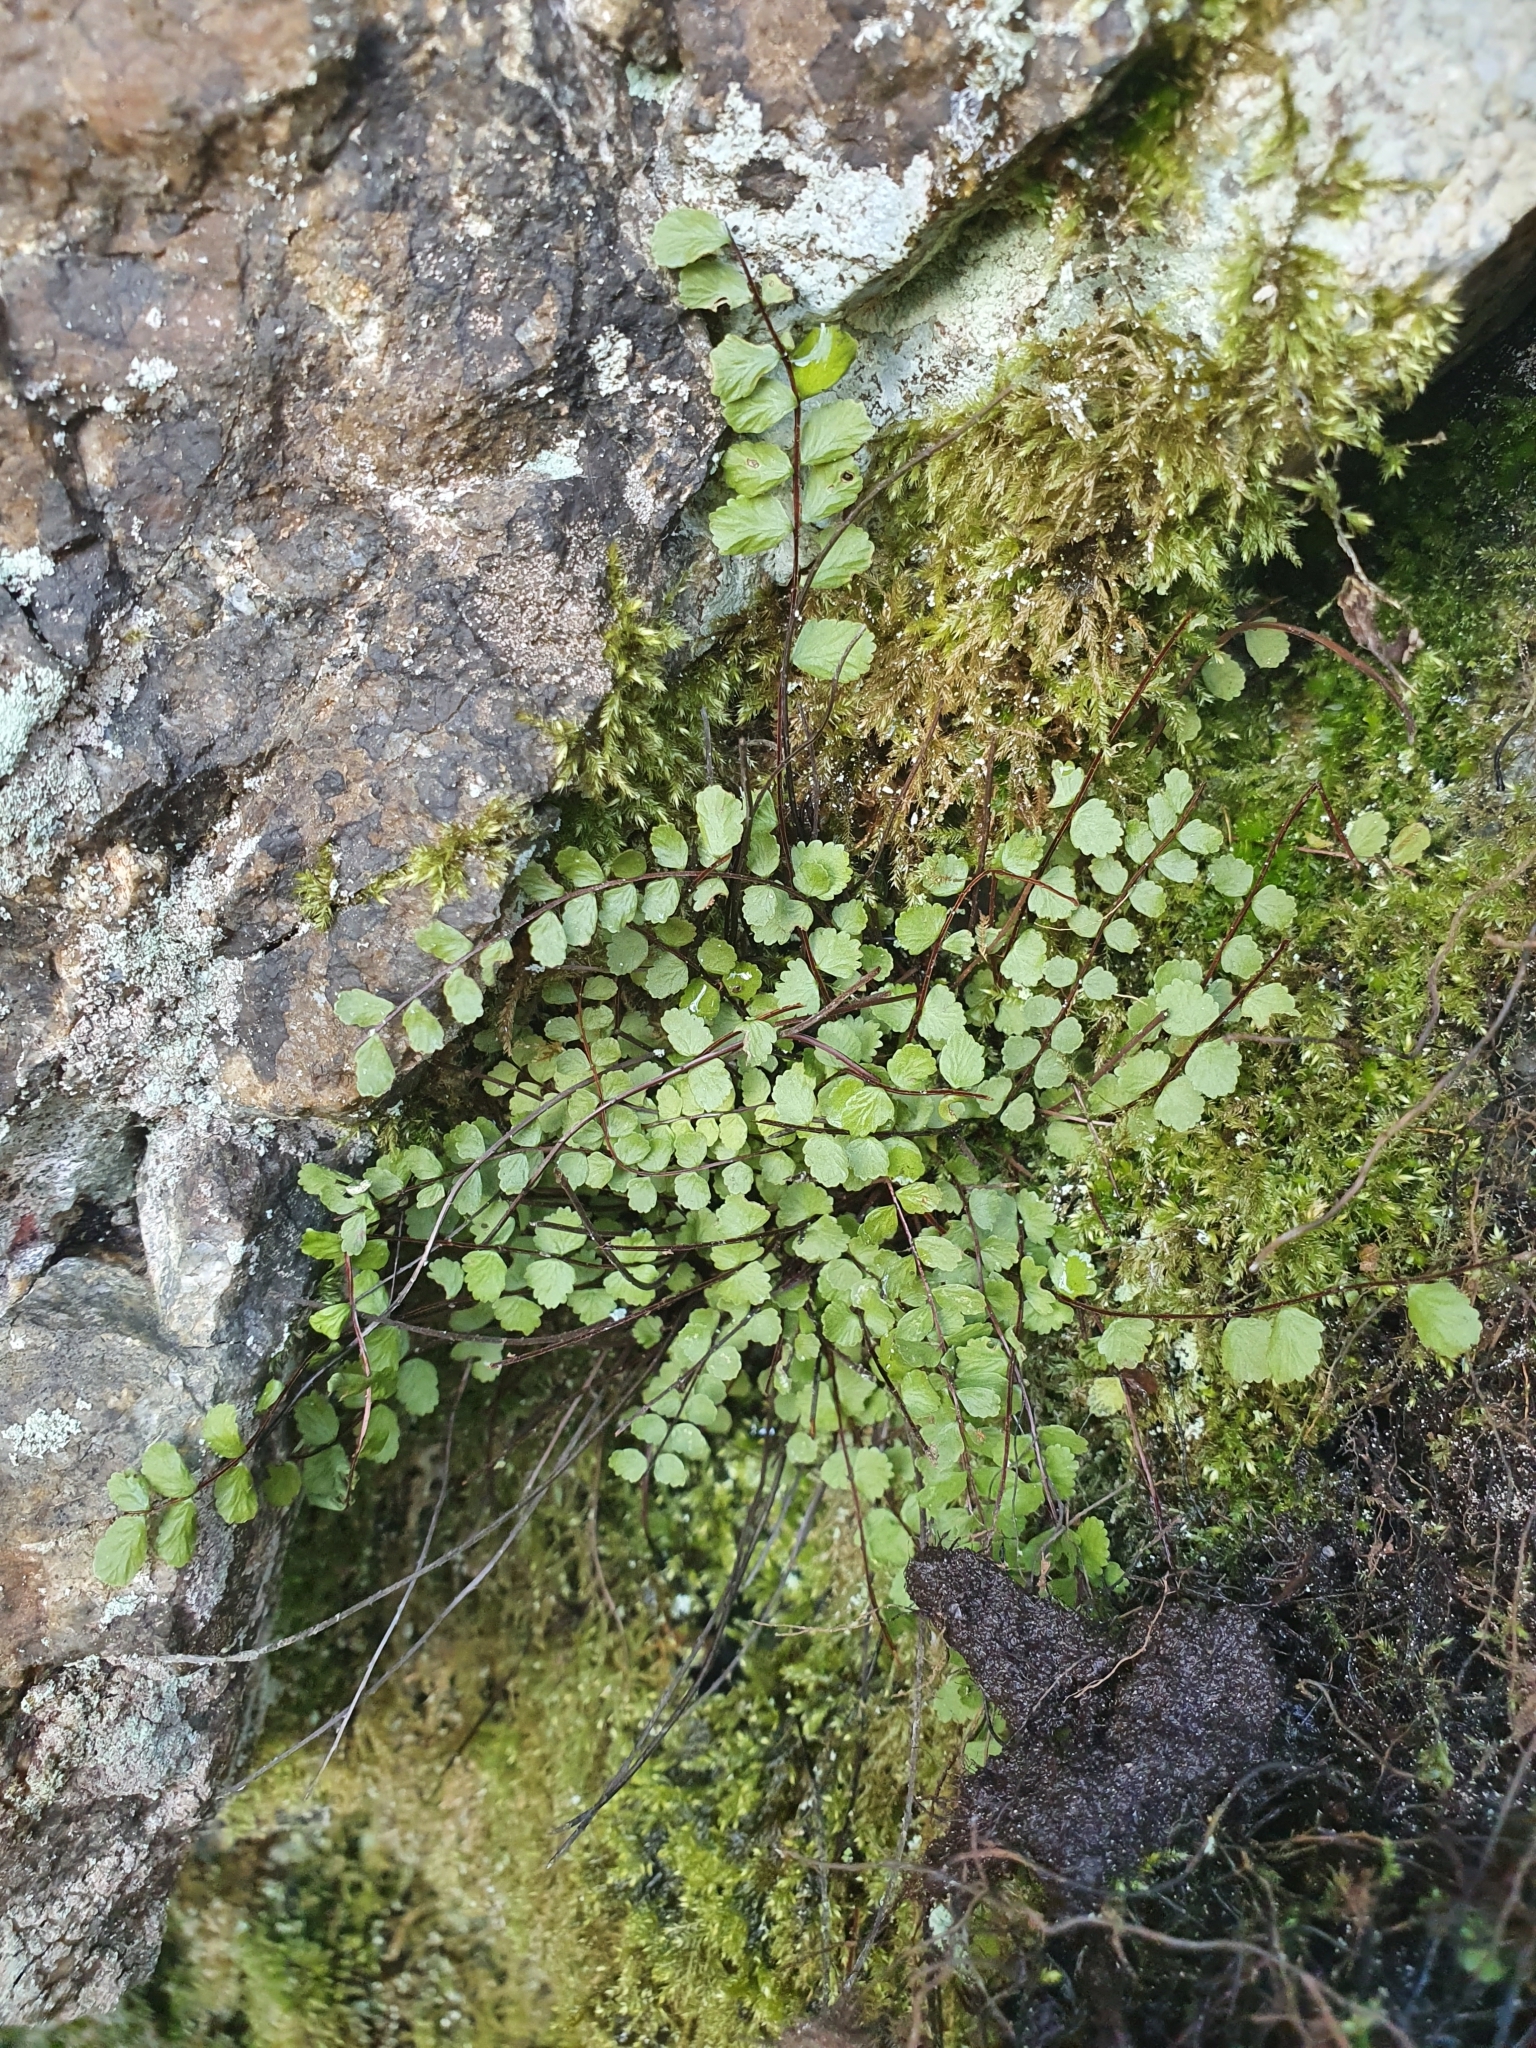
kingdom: Plantae
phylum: Tracheophyta
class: Polypodiopsida
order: Polypodiales
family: Aspleniaceae
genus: Asplenium
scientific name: Asplenium trichomanes
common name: Maidenhair spleenwort
